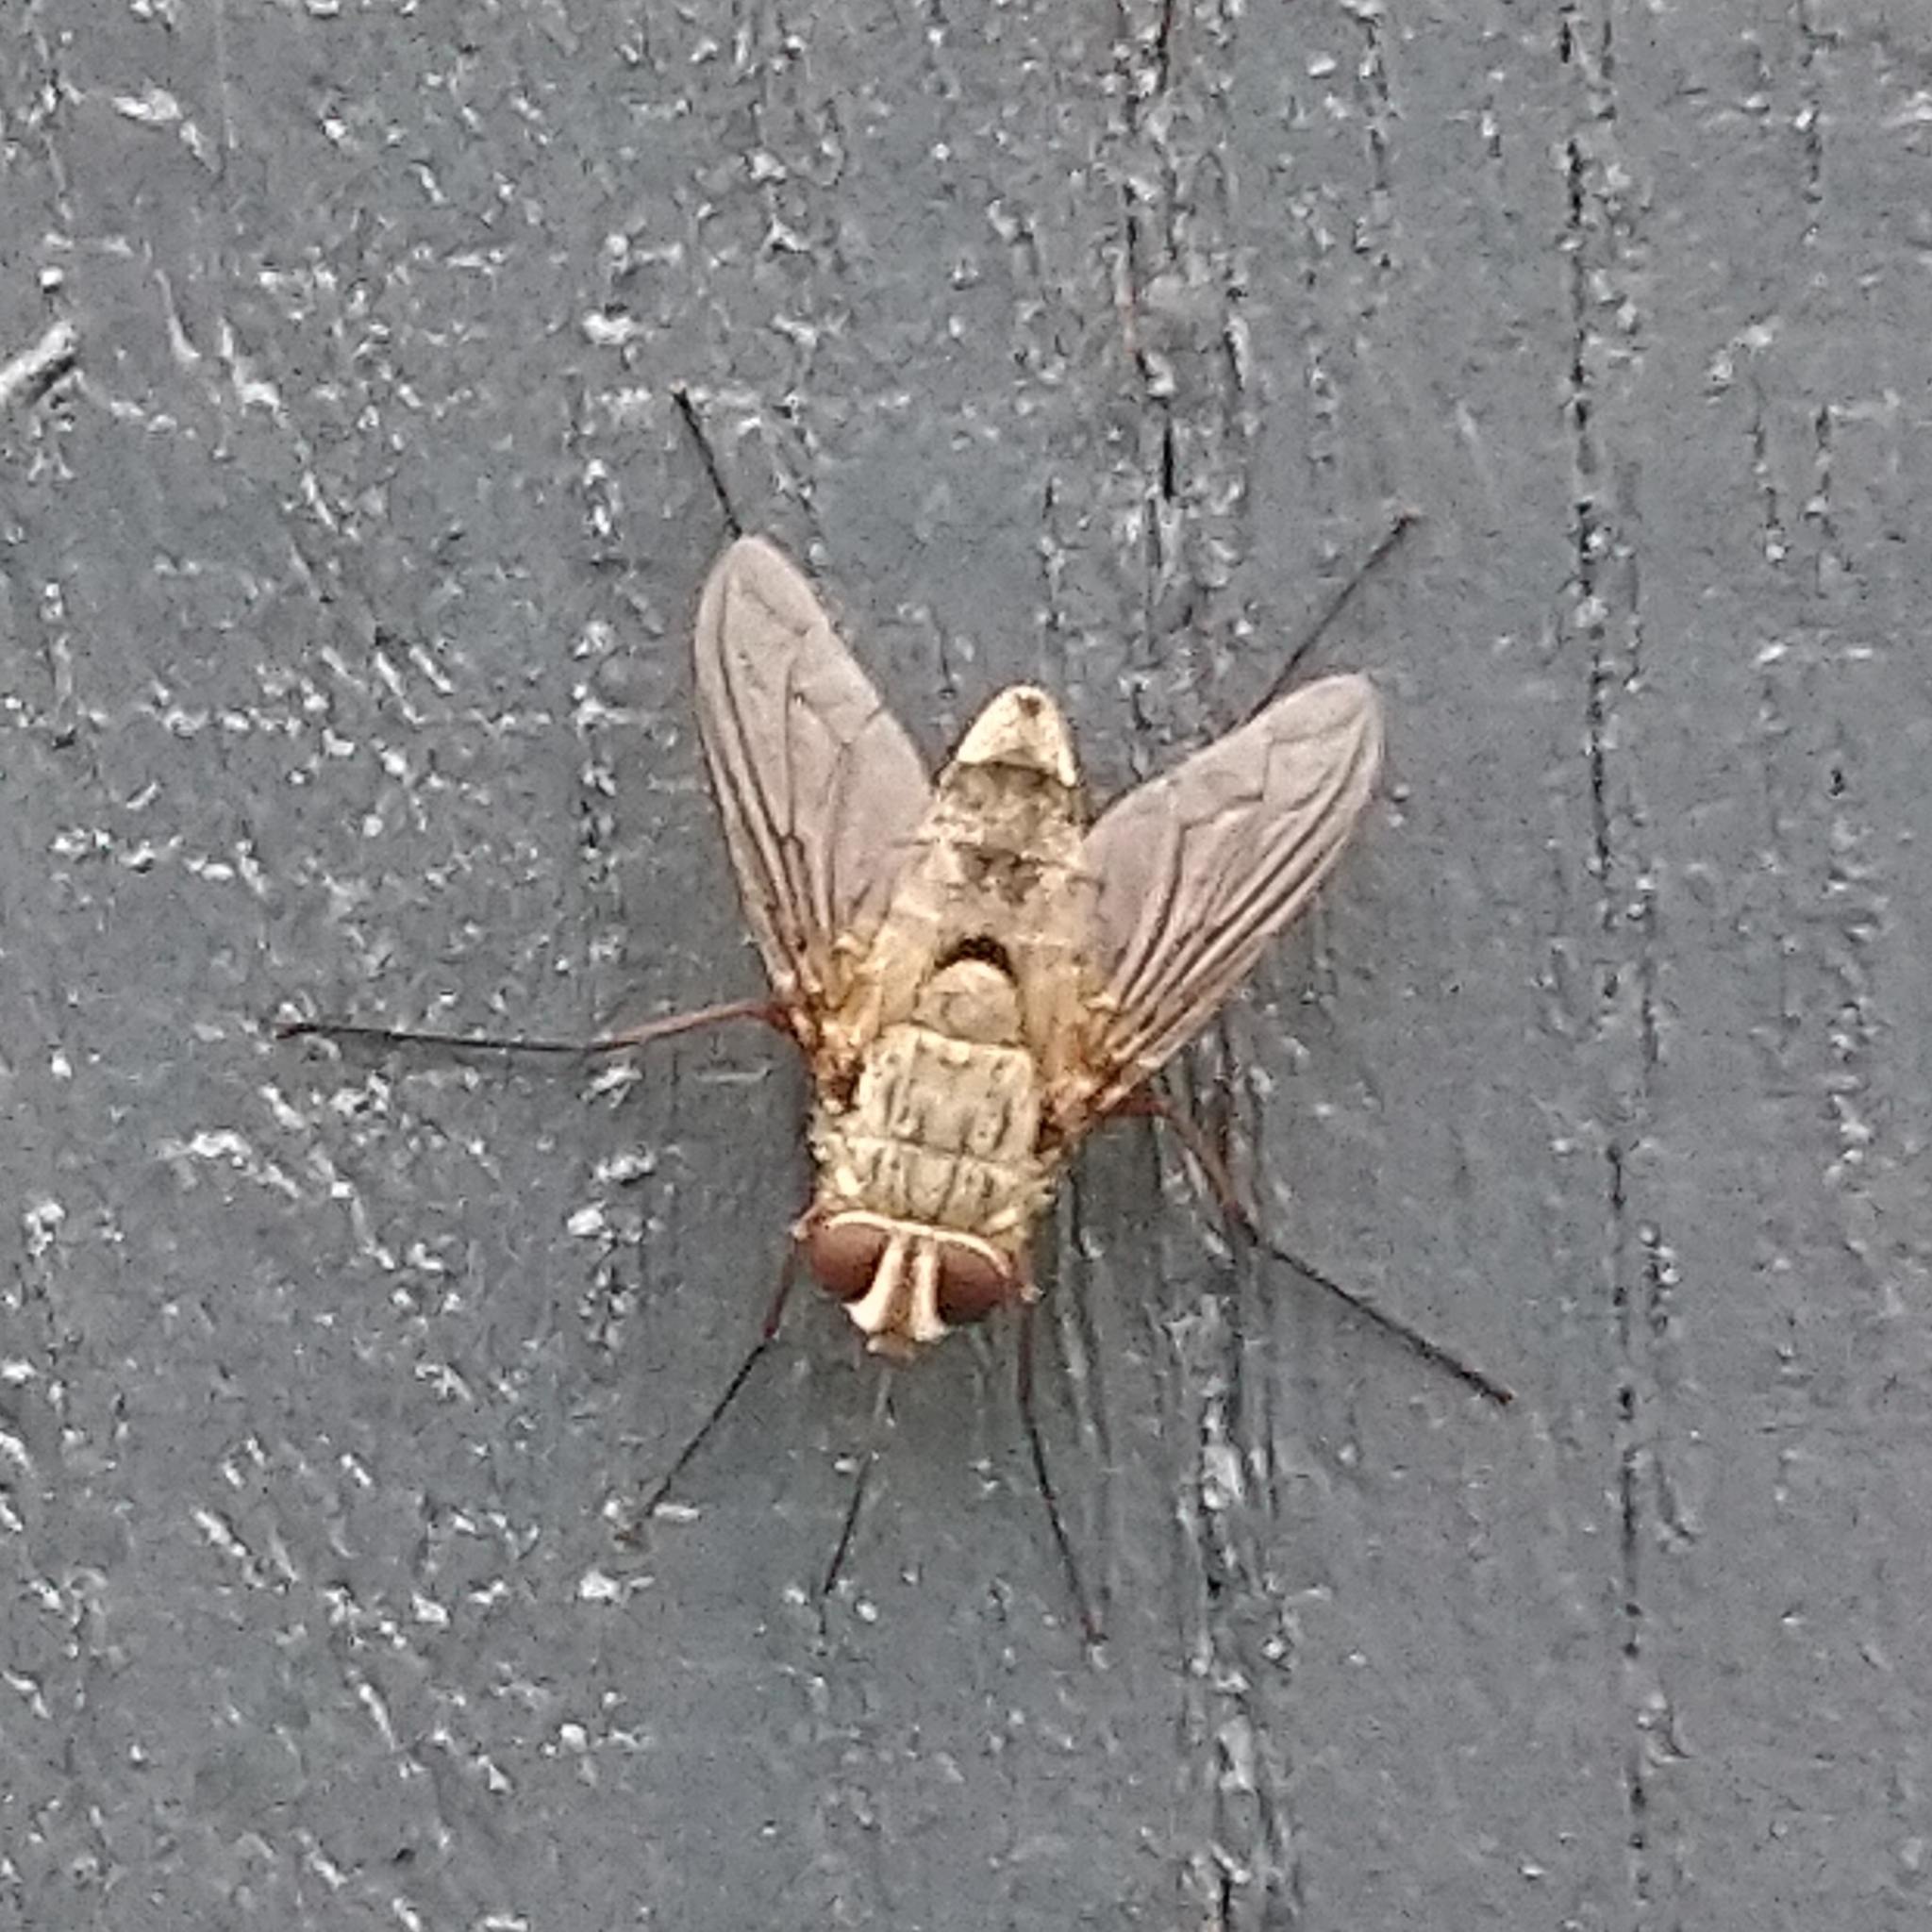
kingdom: Animalia
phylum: Arthropoda
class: Insecta
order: Diptera
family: Tachinidae
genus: Prosena
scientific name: Prosena siberita
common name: Parasitic fly
